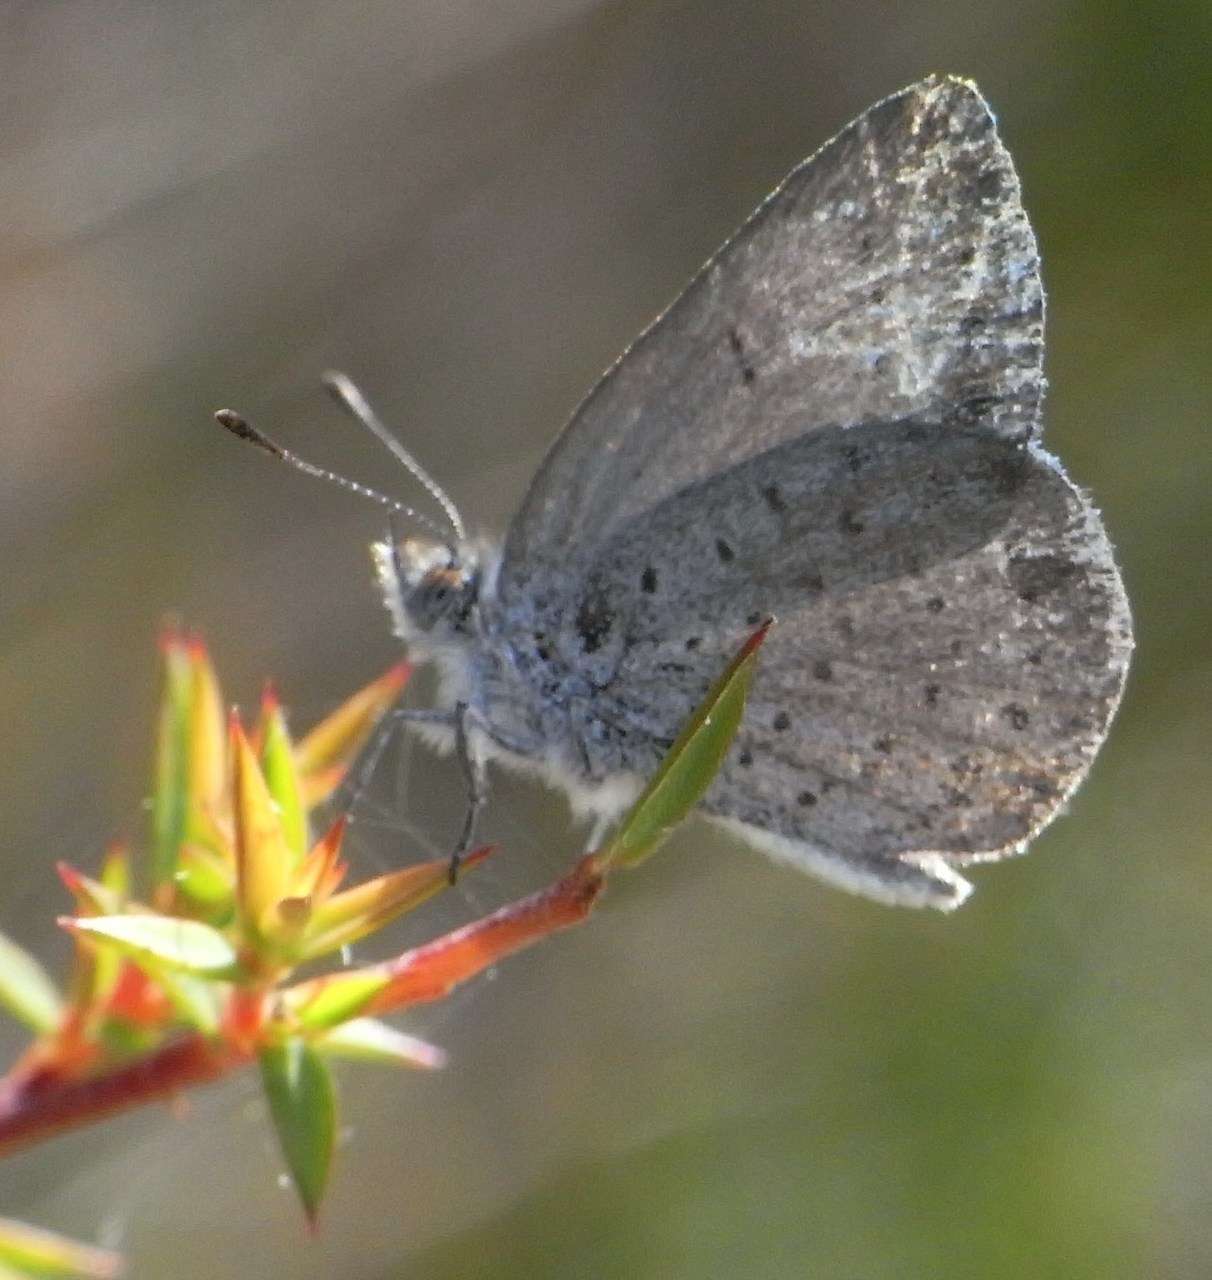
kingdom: Animalia
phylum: Arthropoda
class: Insecta
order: Lepidoptera
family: Lycaenidae
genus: Candalides
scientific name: Candalides
